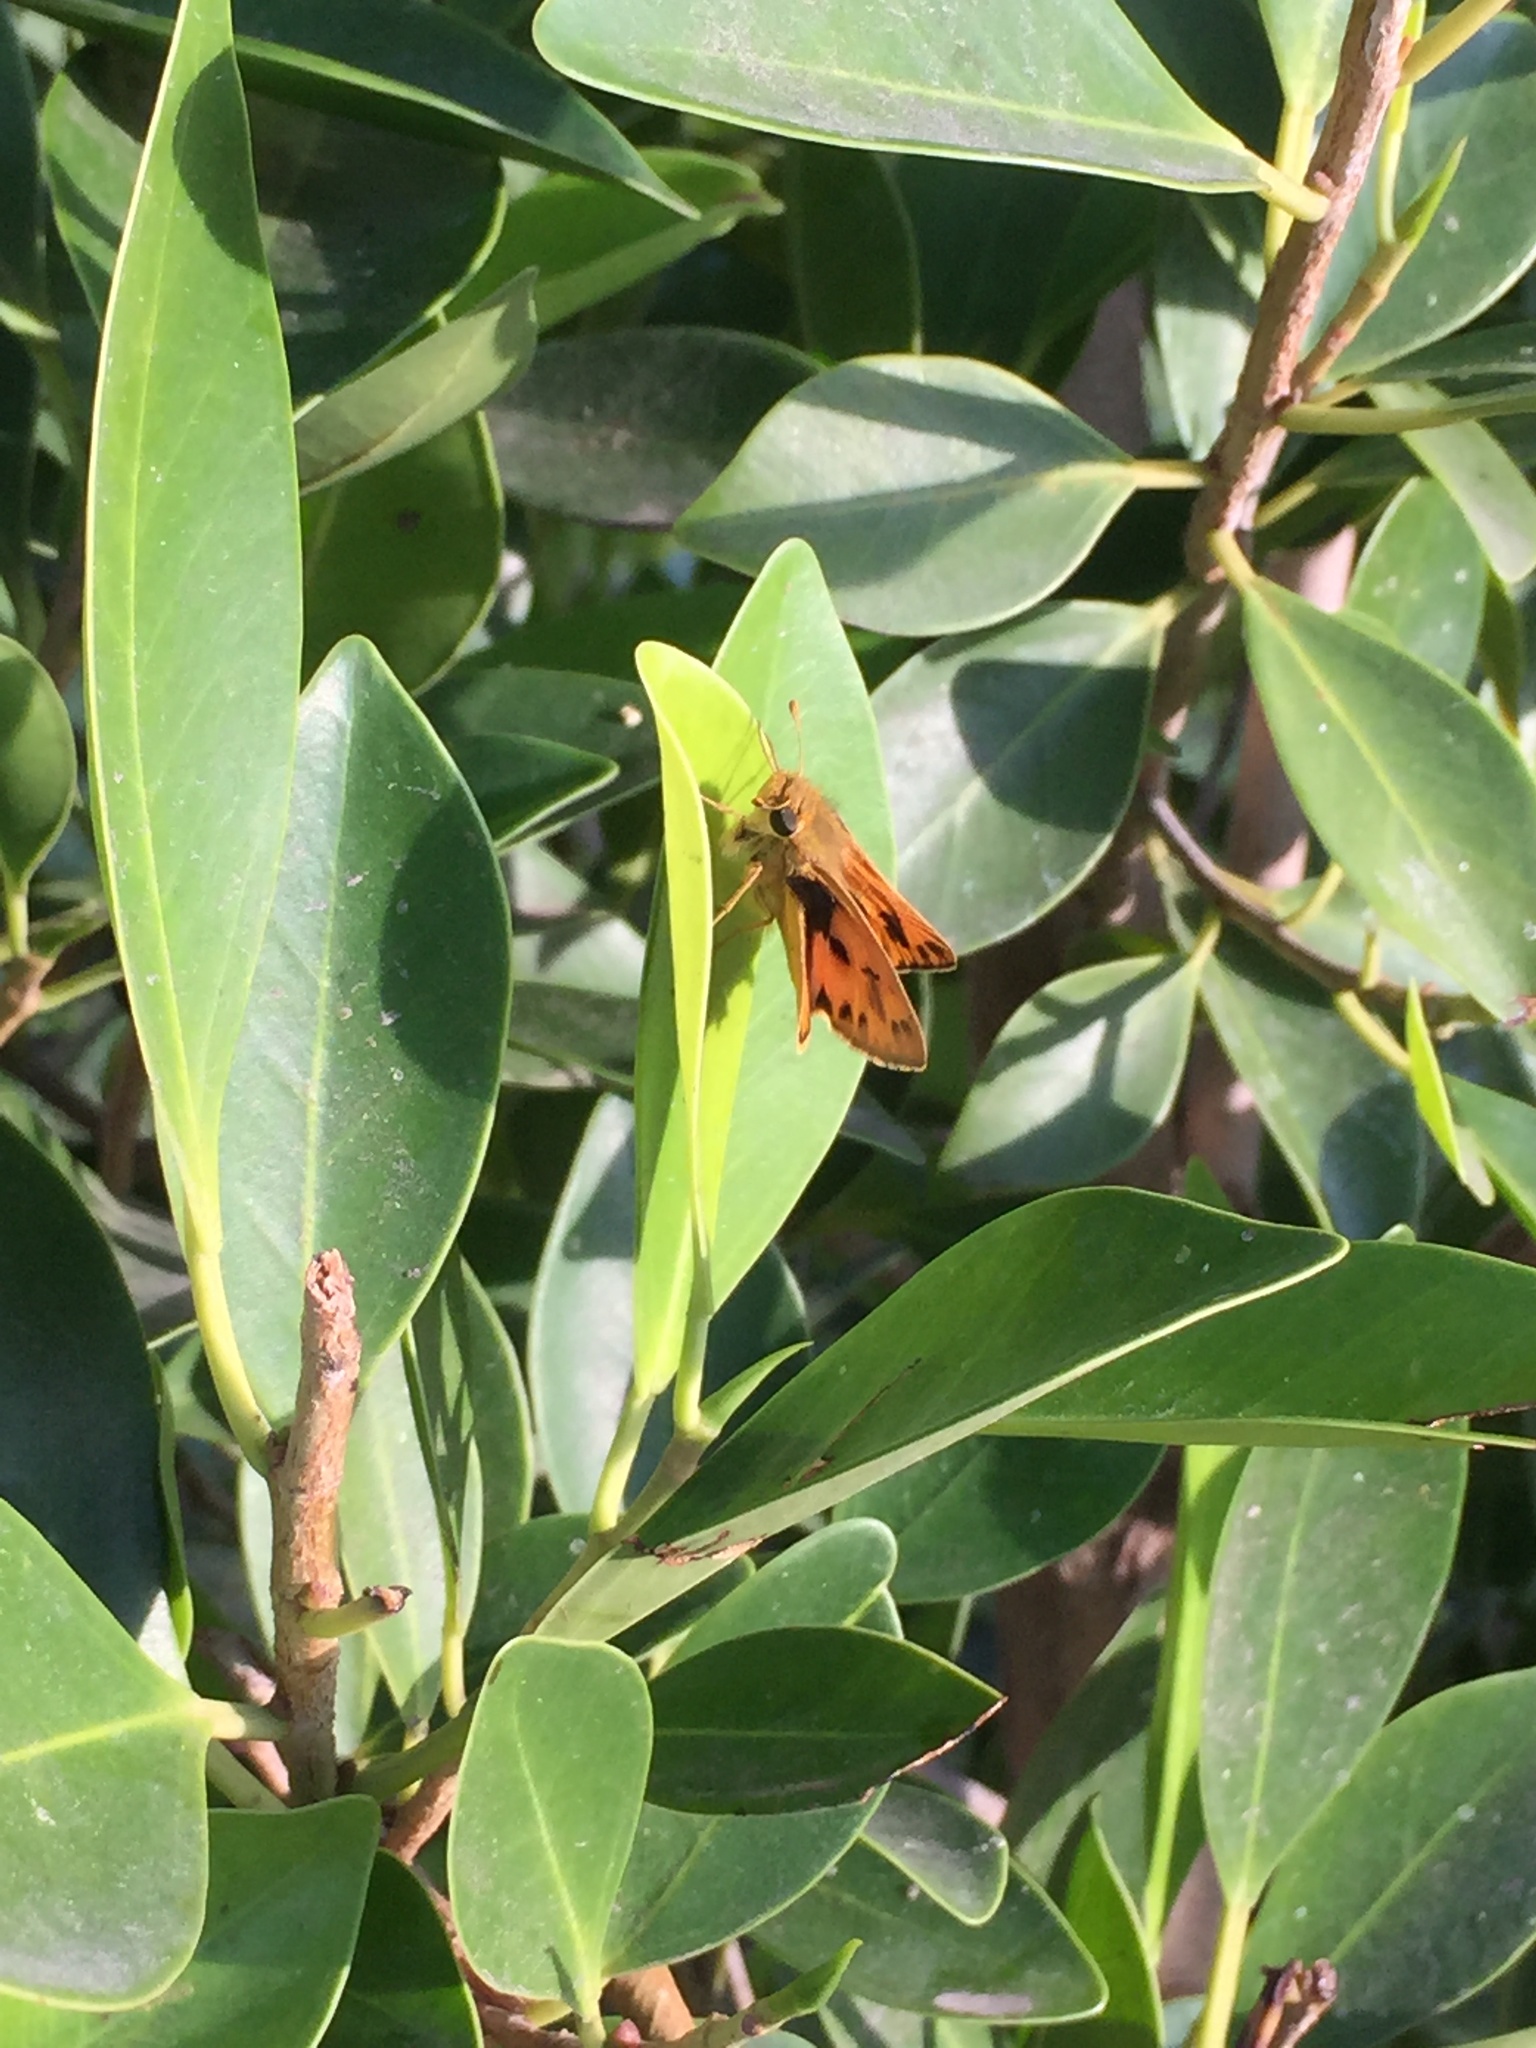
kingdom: Animalia
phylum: Arthropoda
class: Insecta
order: Lepidoptera
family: Hesperiidae
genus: Hylephila
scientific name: Hylephila phyleus
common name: Fiery skipper
